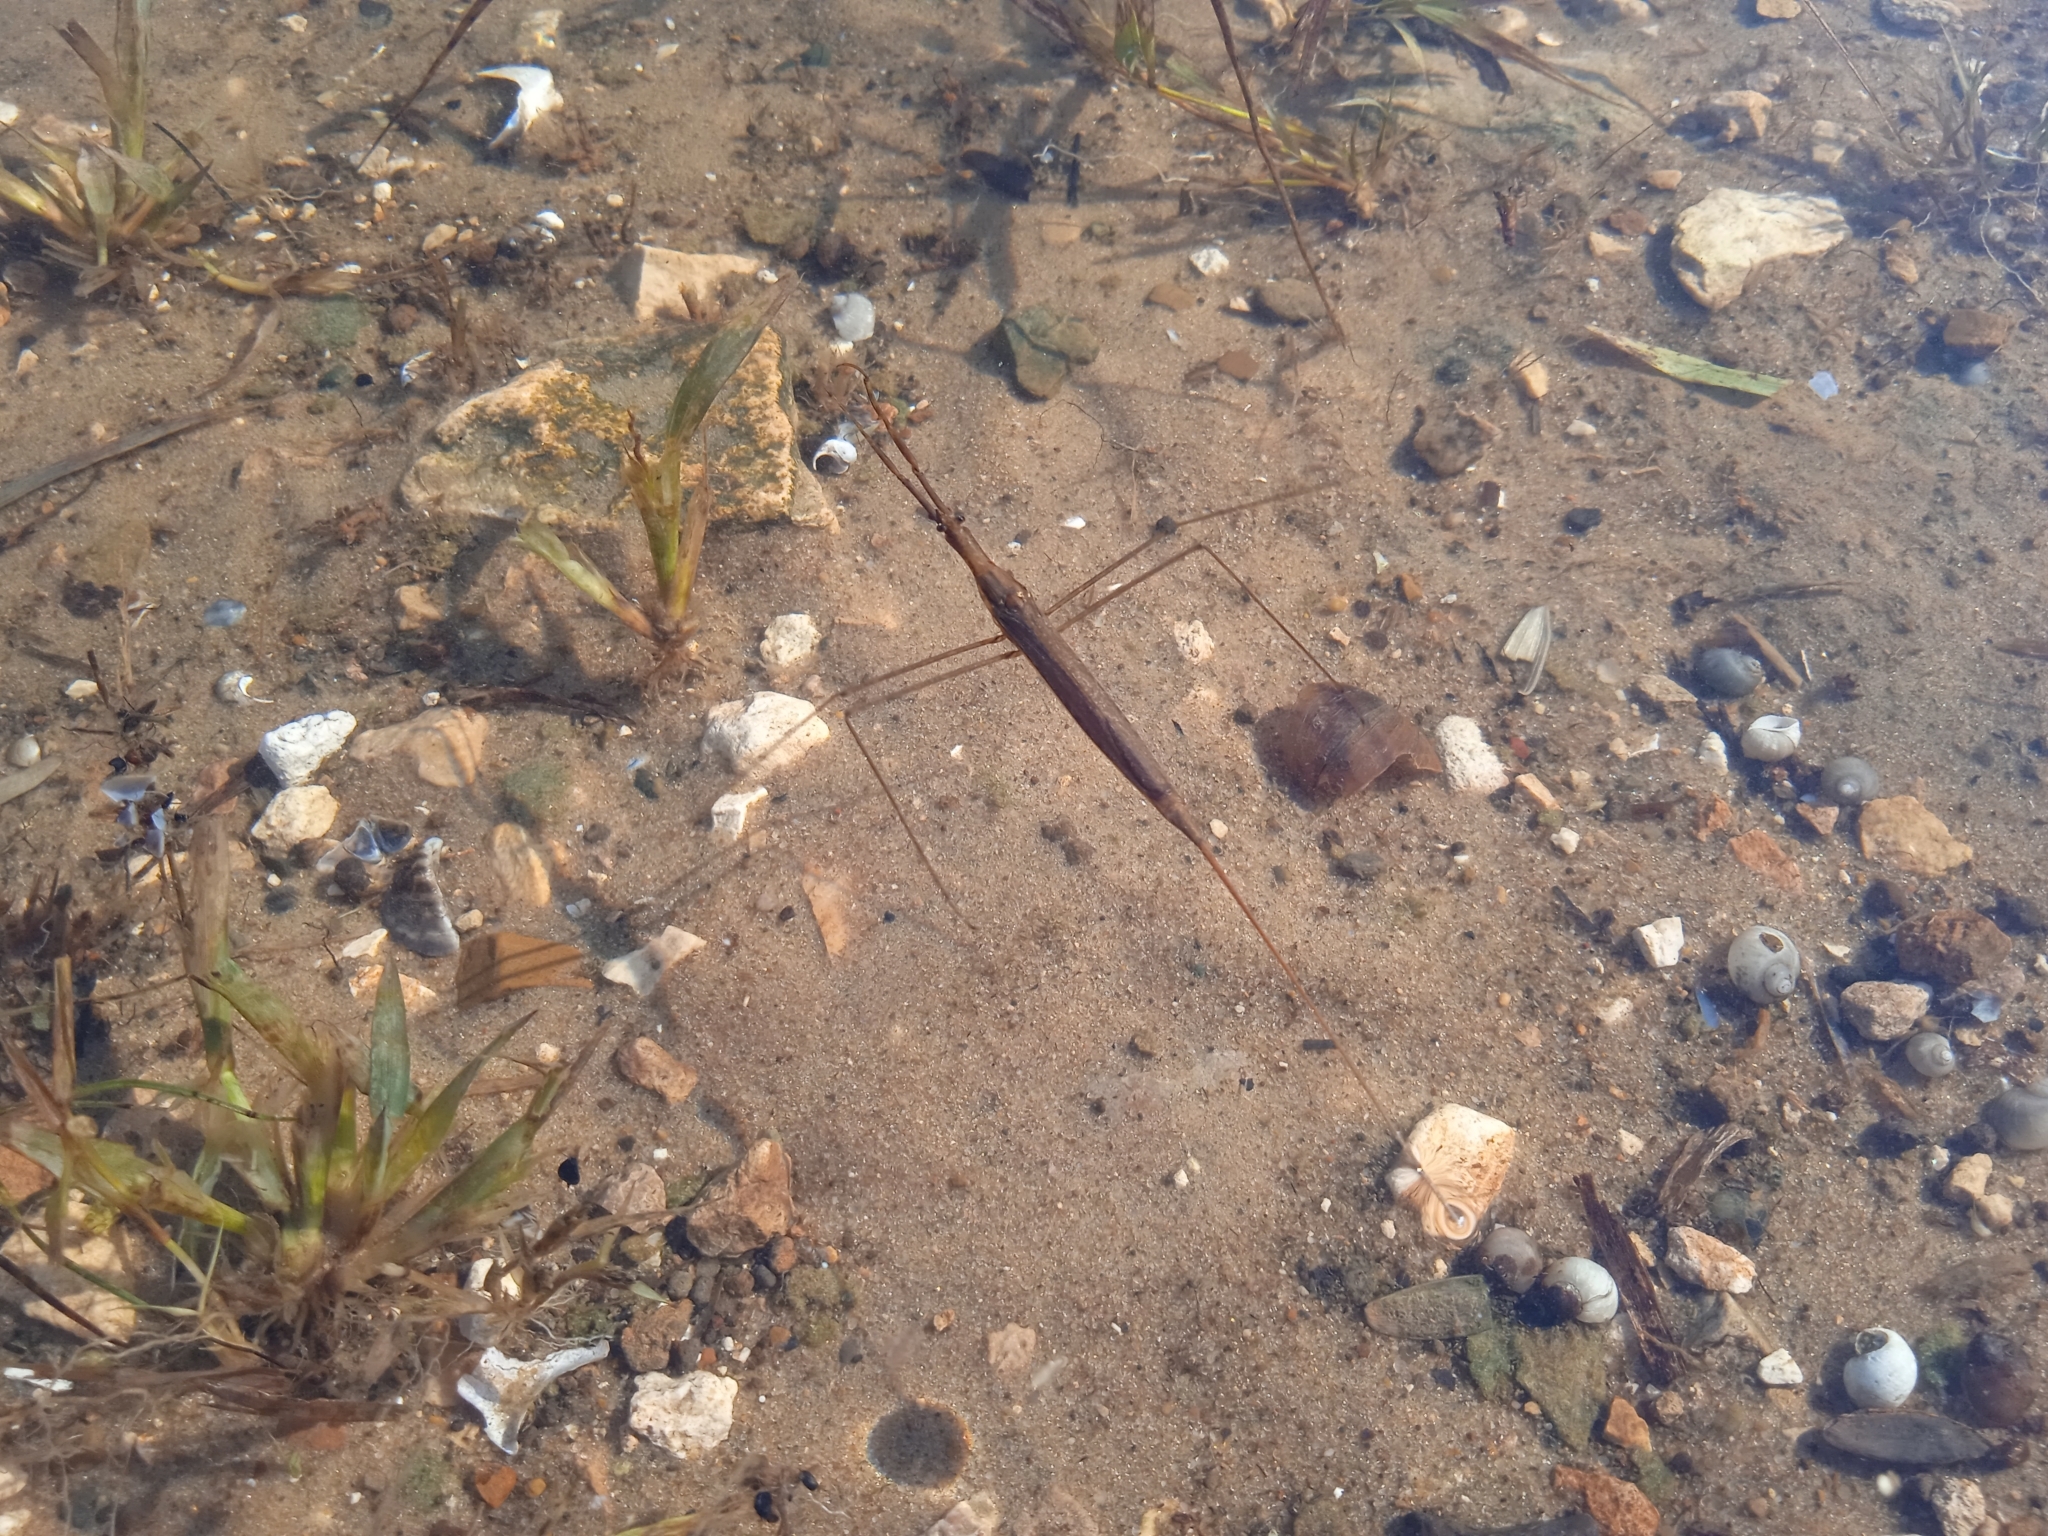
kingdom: Animalia
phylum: Arthropoda
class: Insecta
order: Hemiptera
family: Nepidae
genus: Ranatra
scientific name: Ranatra linearis
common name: Water stick insect
